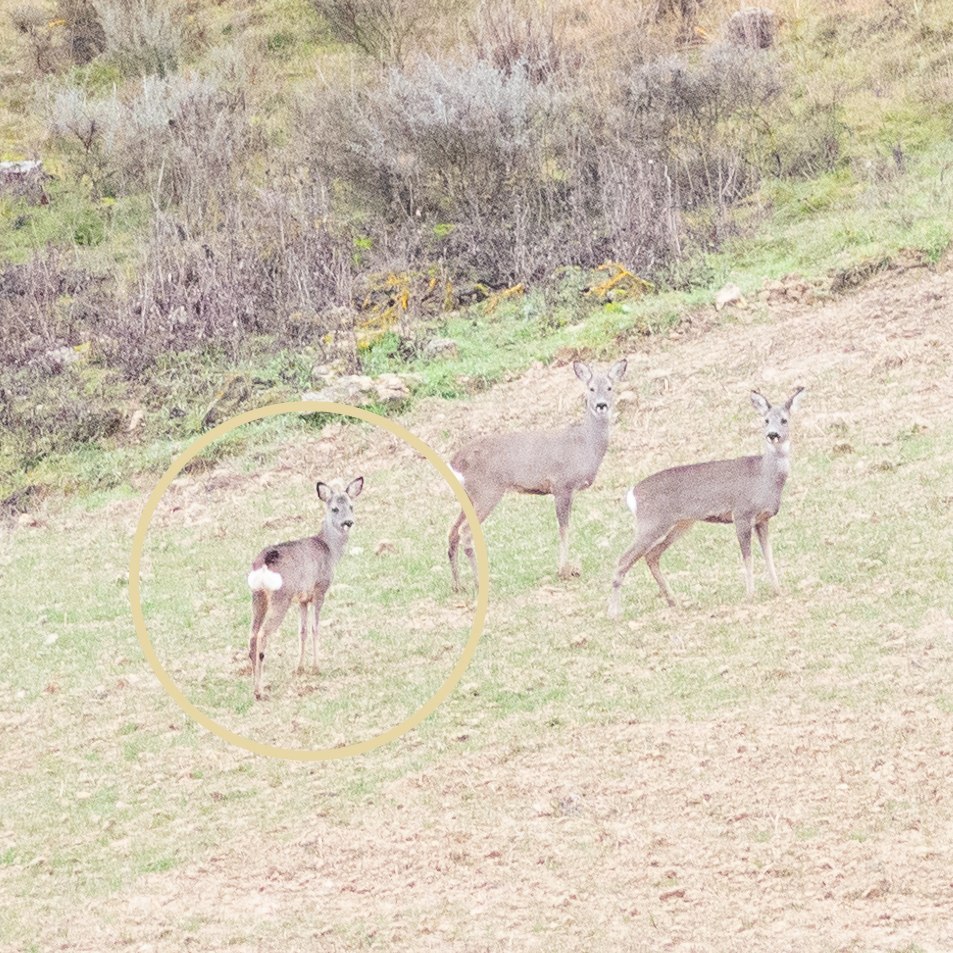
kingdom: Animalia
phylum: Chordata
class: Mammalia
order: Artiodactyla
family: Cervidae
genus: Capreolus
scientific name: Capreolus capreolus
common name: Western roe deer
